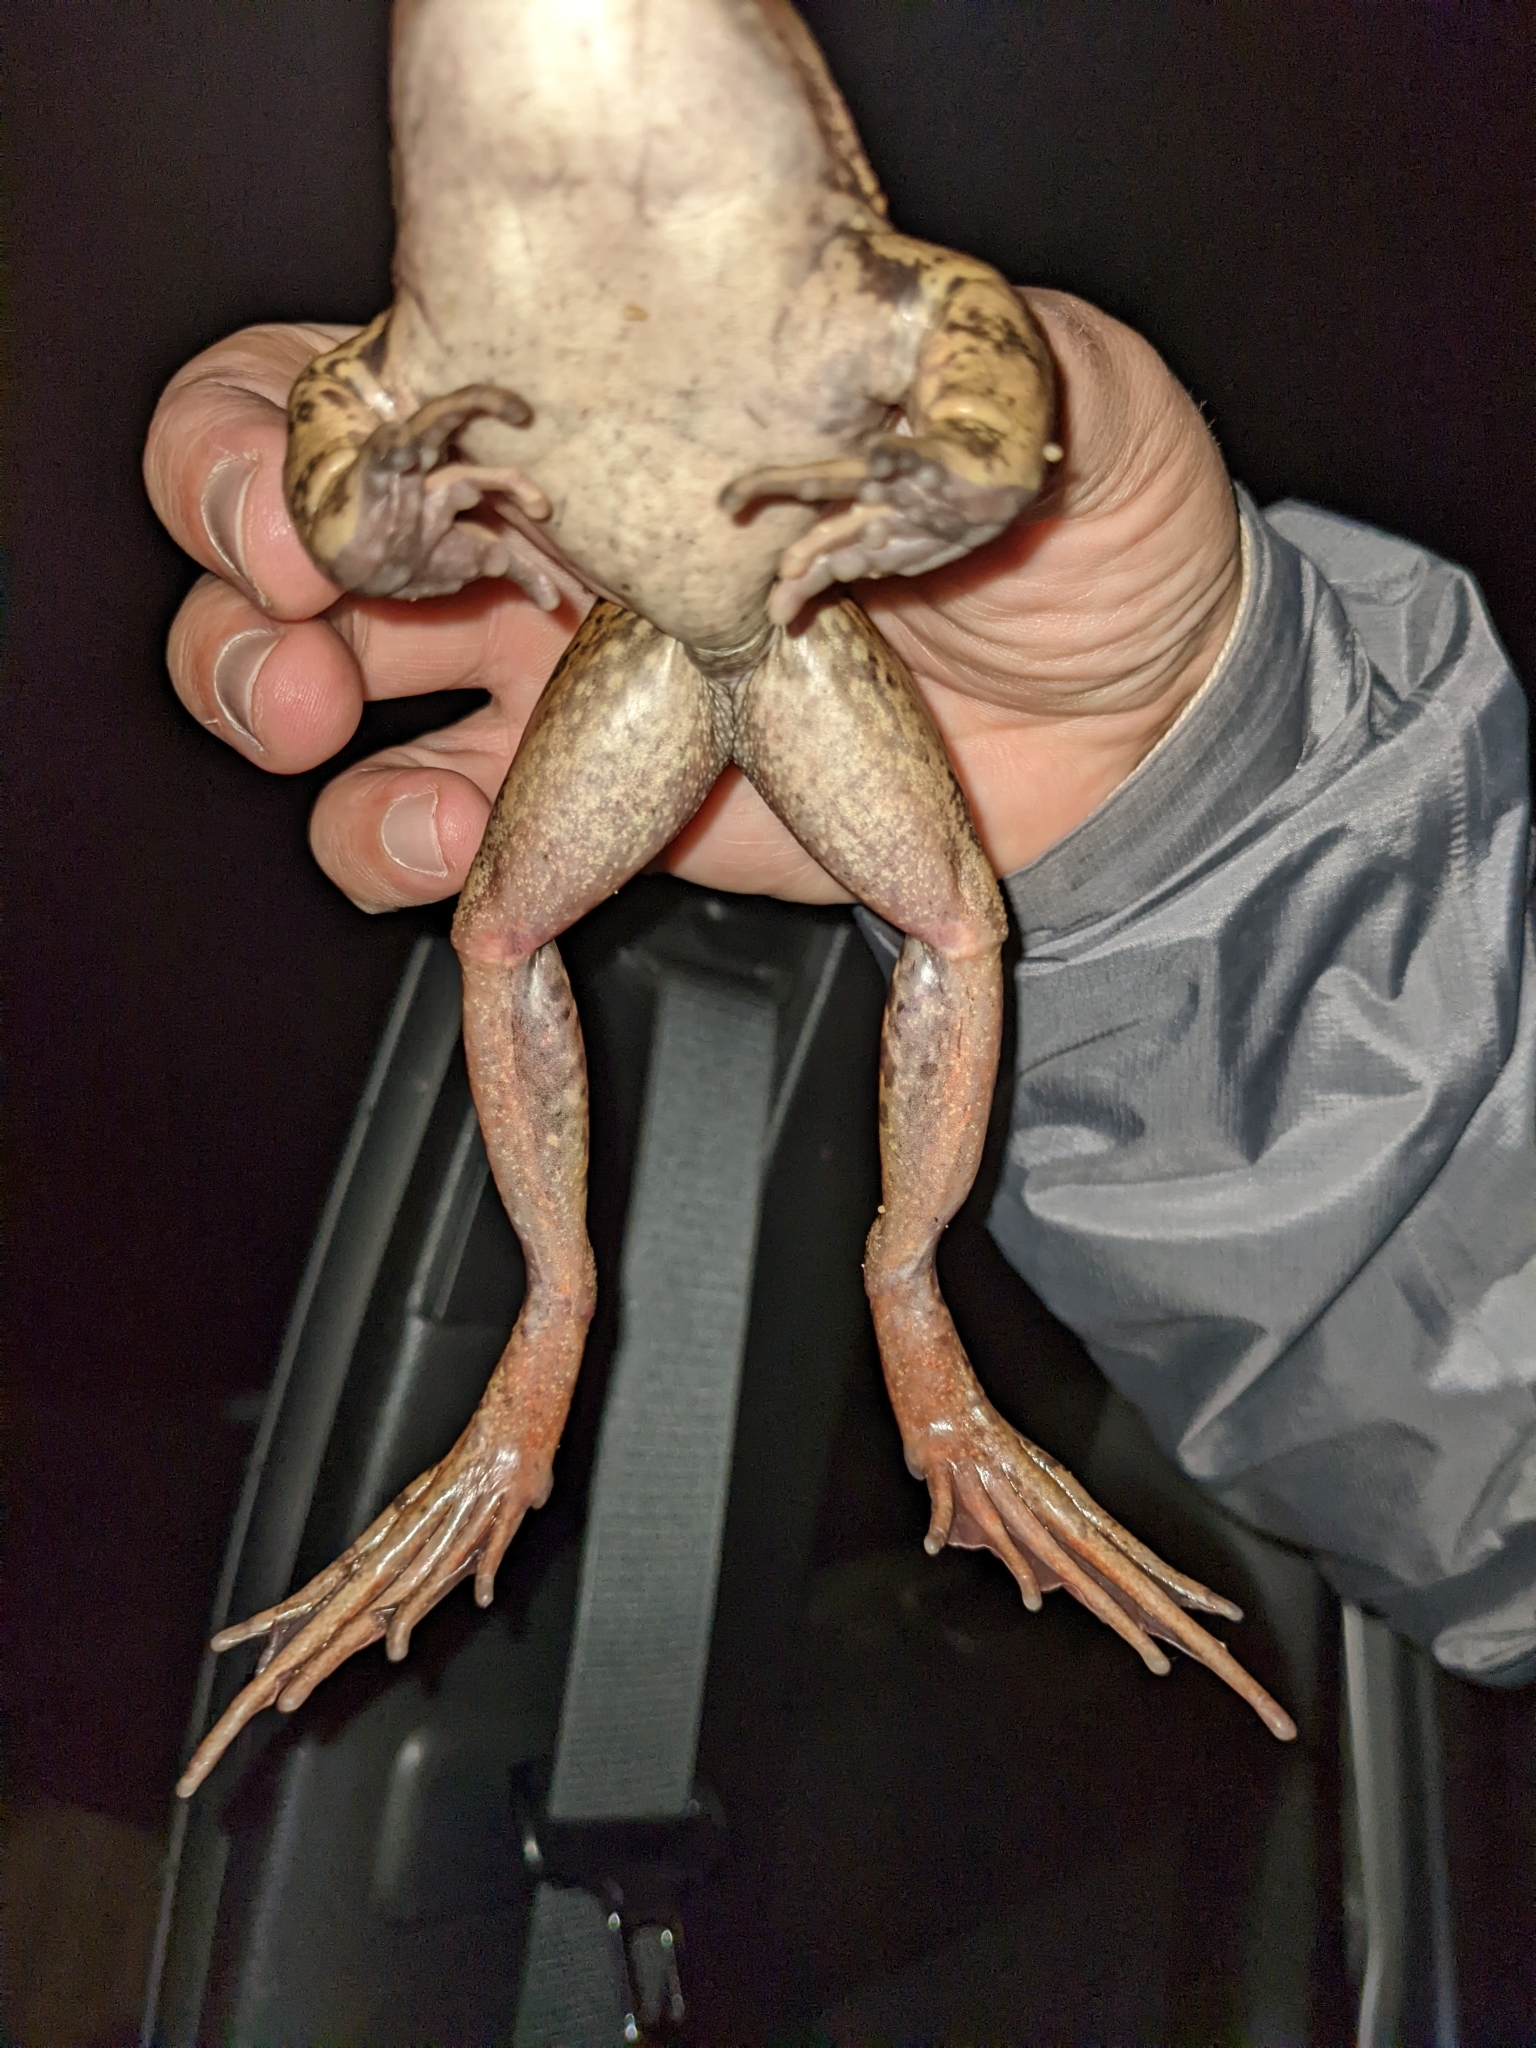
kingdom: Animalia
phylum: Chordata
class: Amphibia
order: Anura
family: Ranidae
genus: Rana
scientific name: Rana draytonii
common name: California red-legged frog
